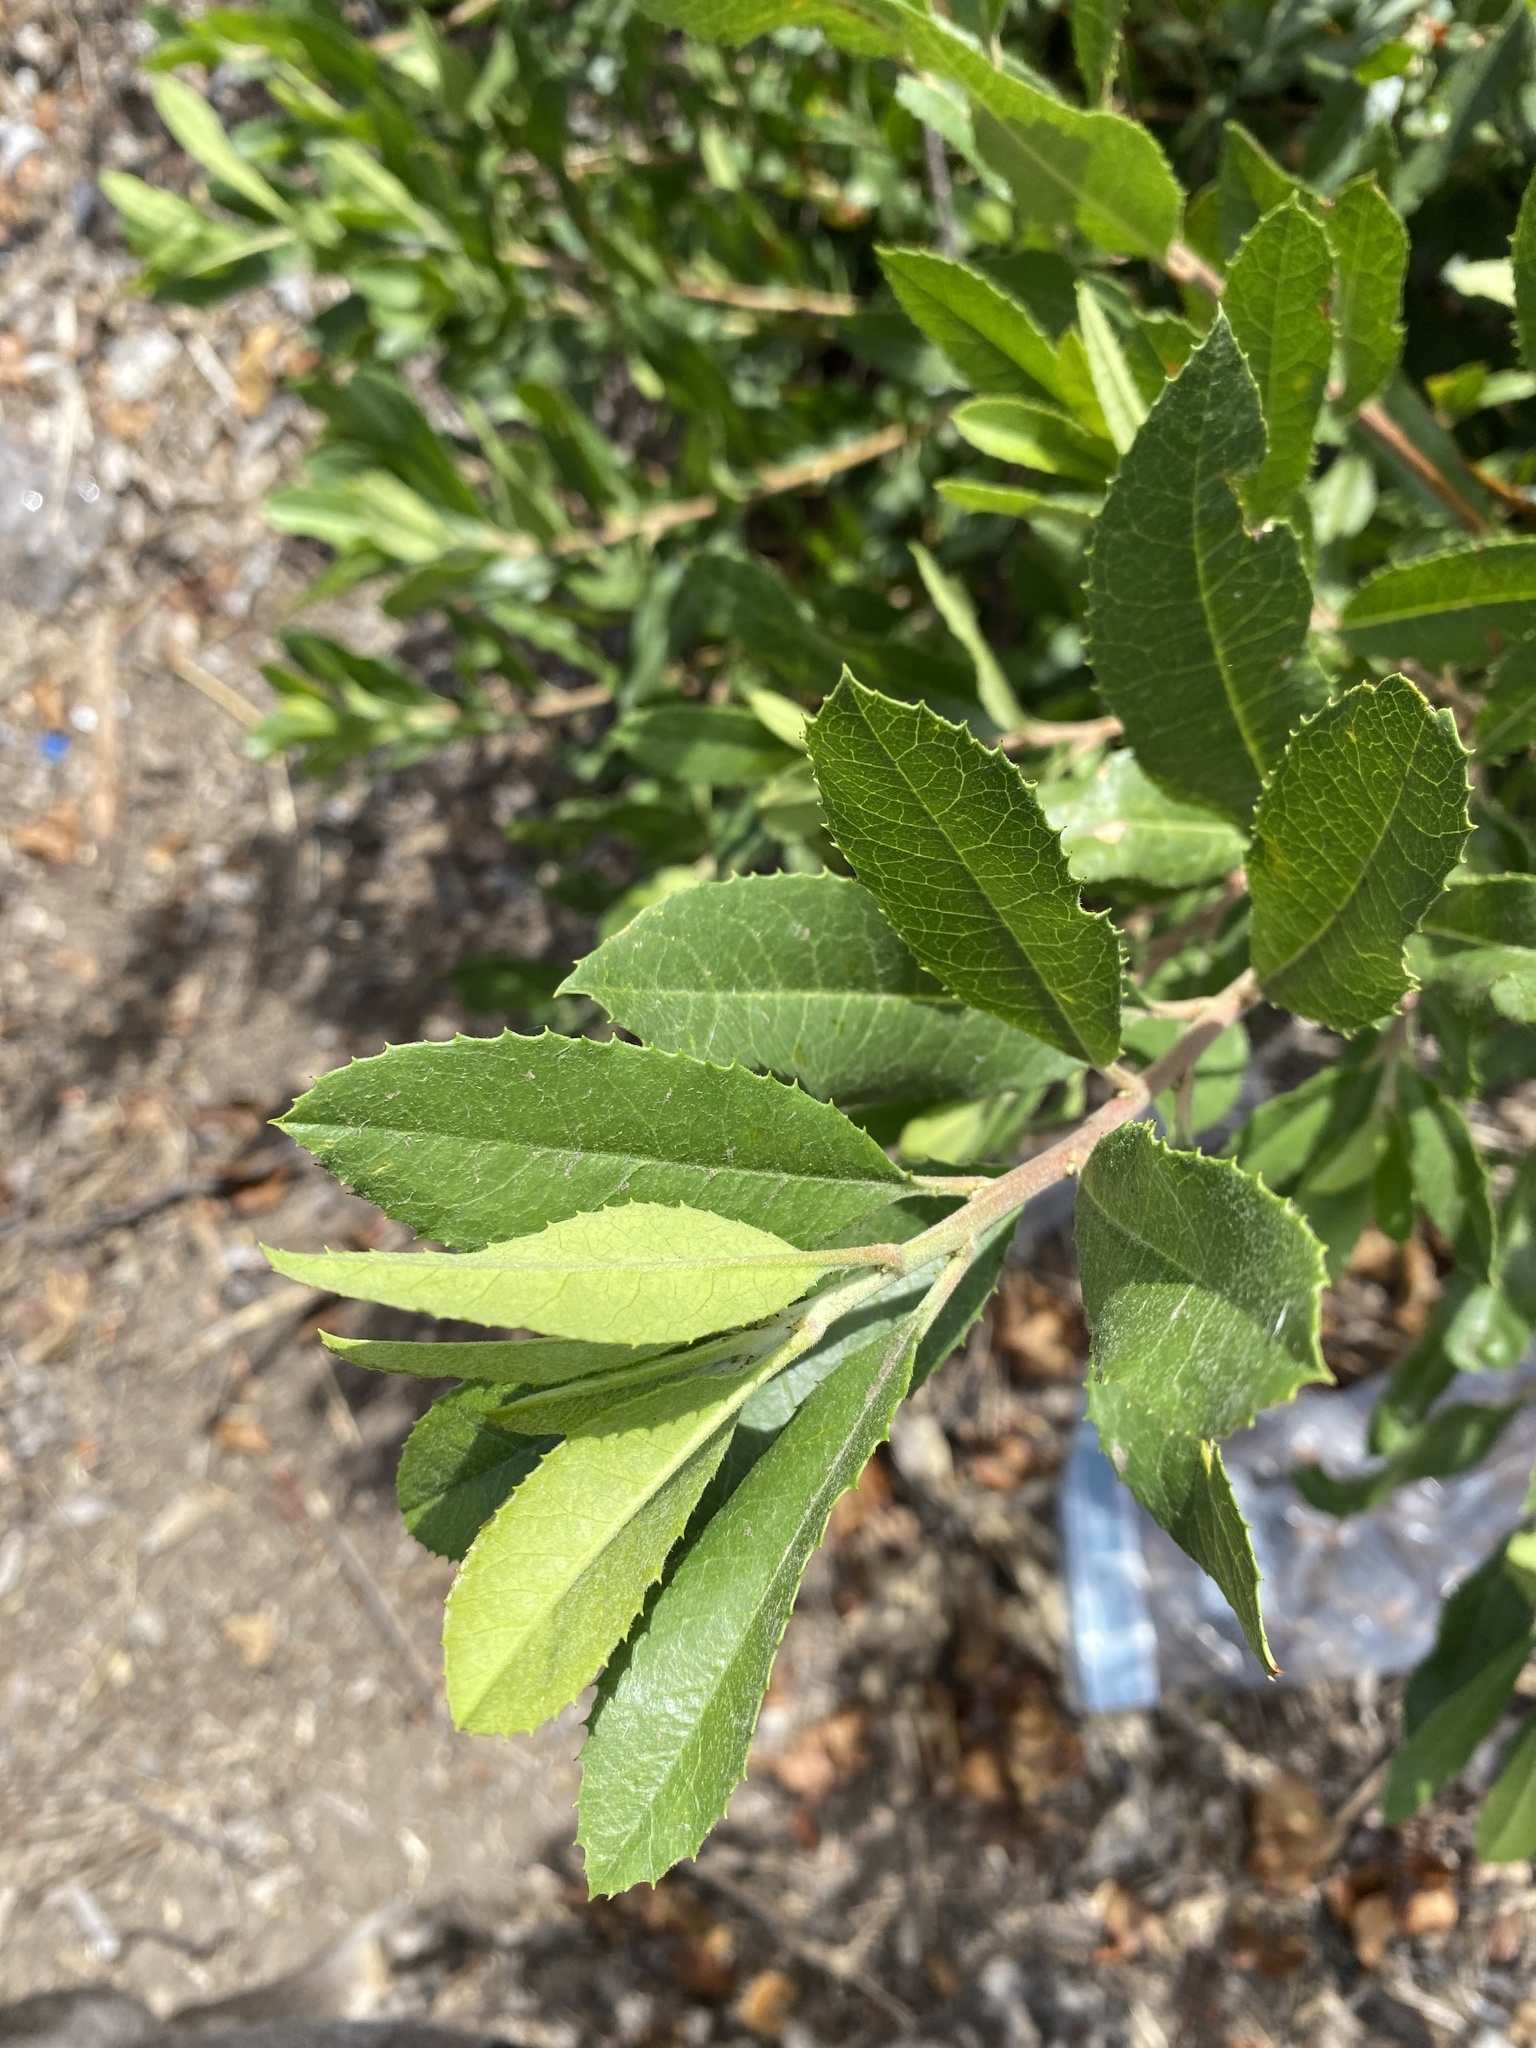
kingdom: Plantae
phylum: Tracheophyta
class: Magnoliopsida
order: Rosales
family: Rosaceae
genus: Heteromeles
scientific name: Heteromeles arbutifolia
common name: California-holly
